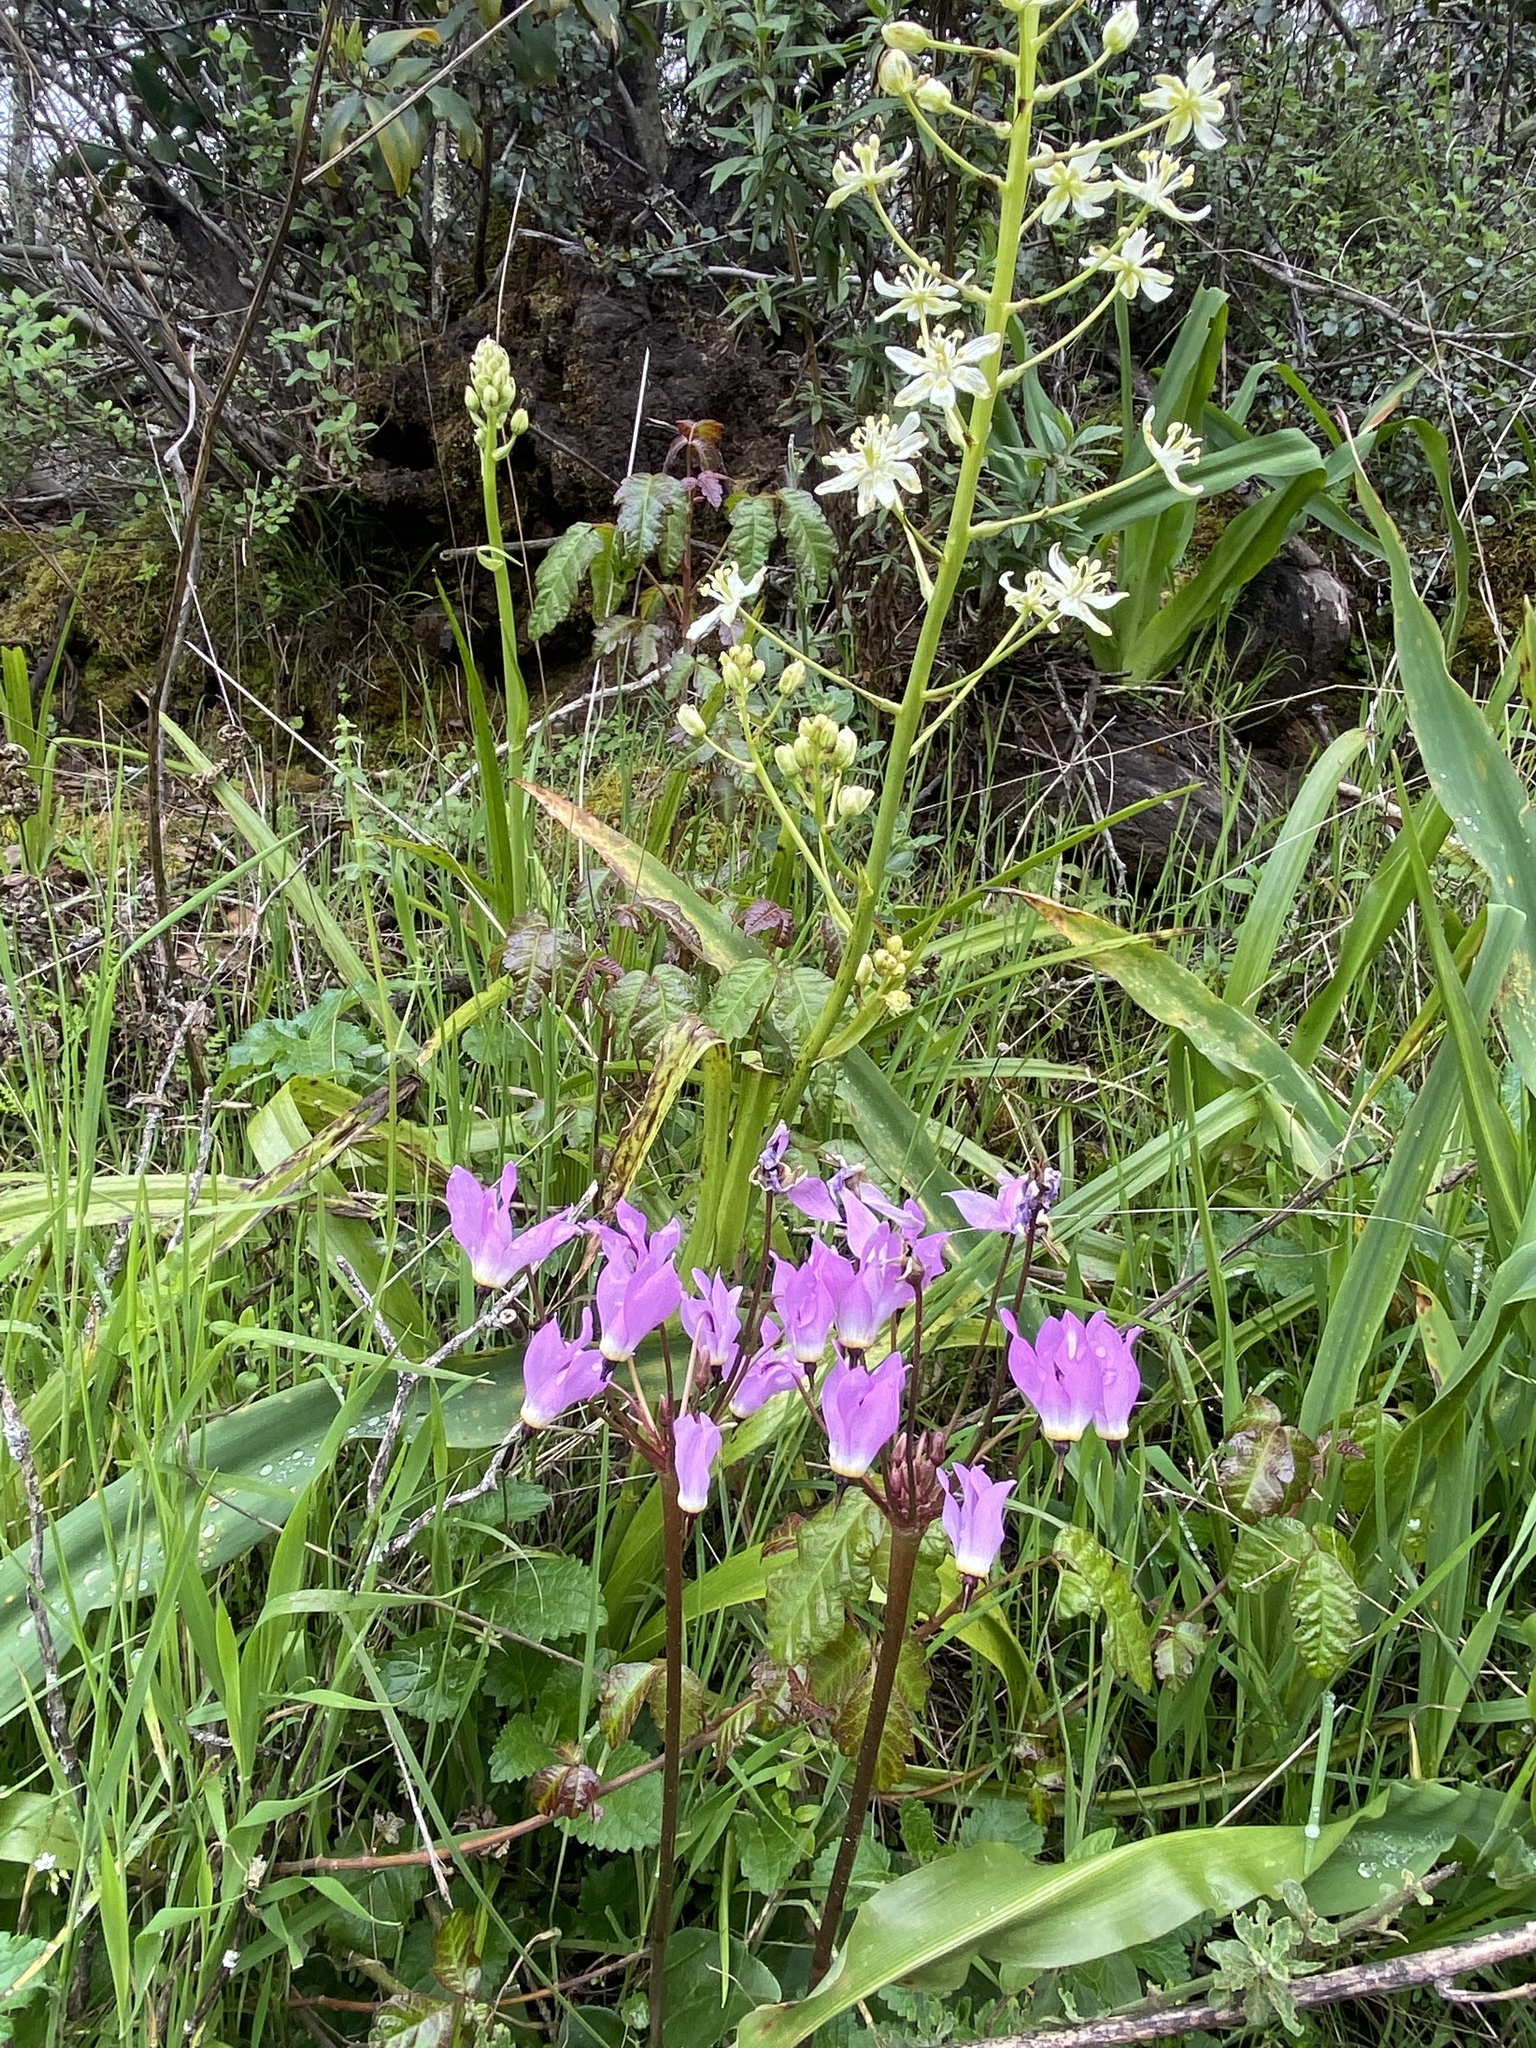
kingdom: Plantae
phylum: Tracheophyta
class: Magnoliopsida
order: Ericales
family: Primulaceae
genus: Dodecatheon
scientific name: Dodecatheon hendersonii
